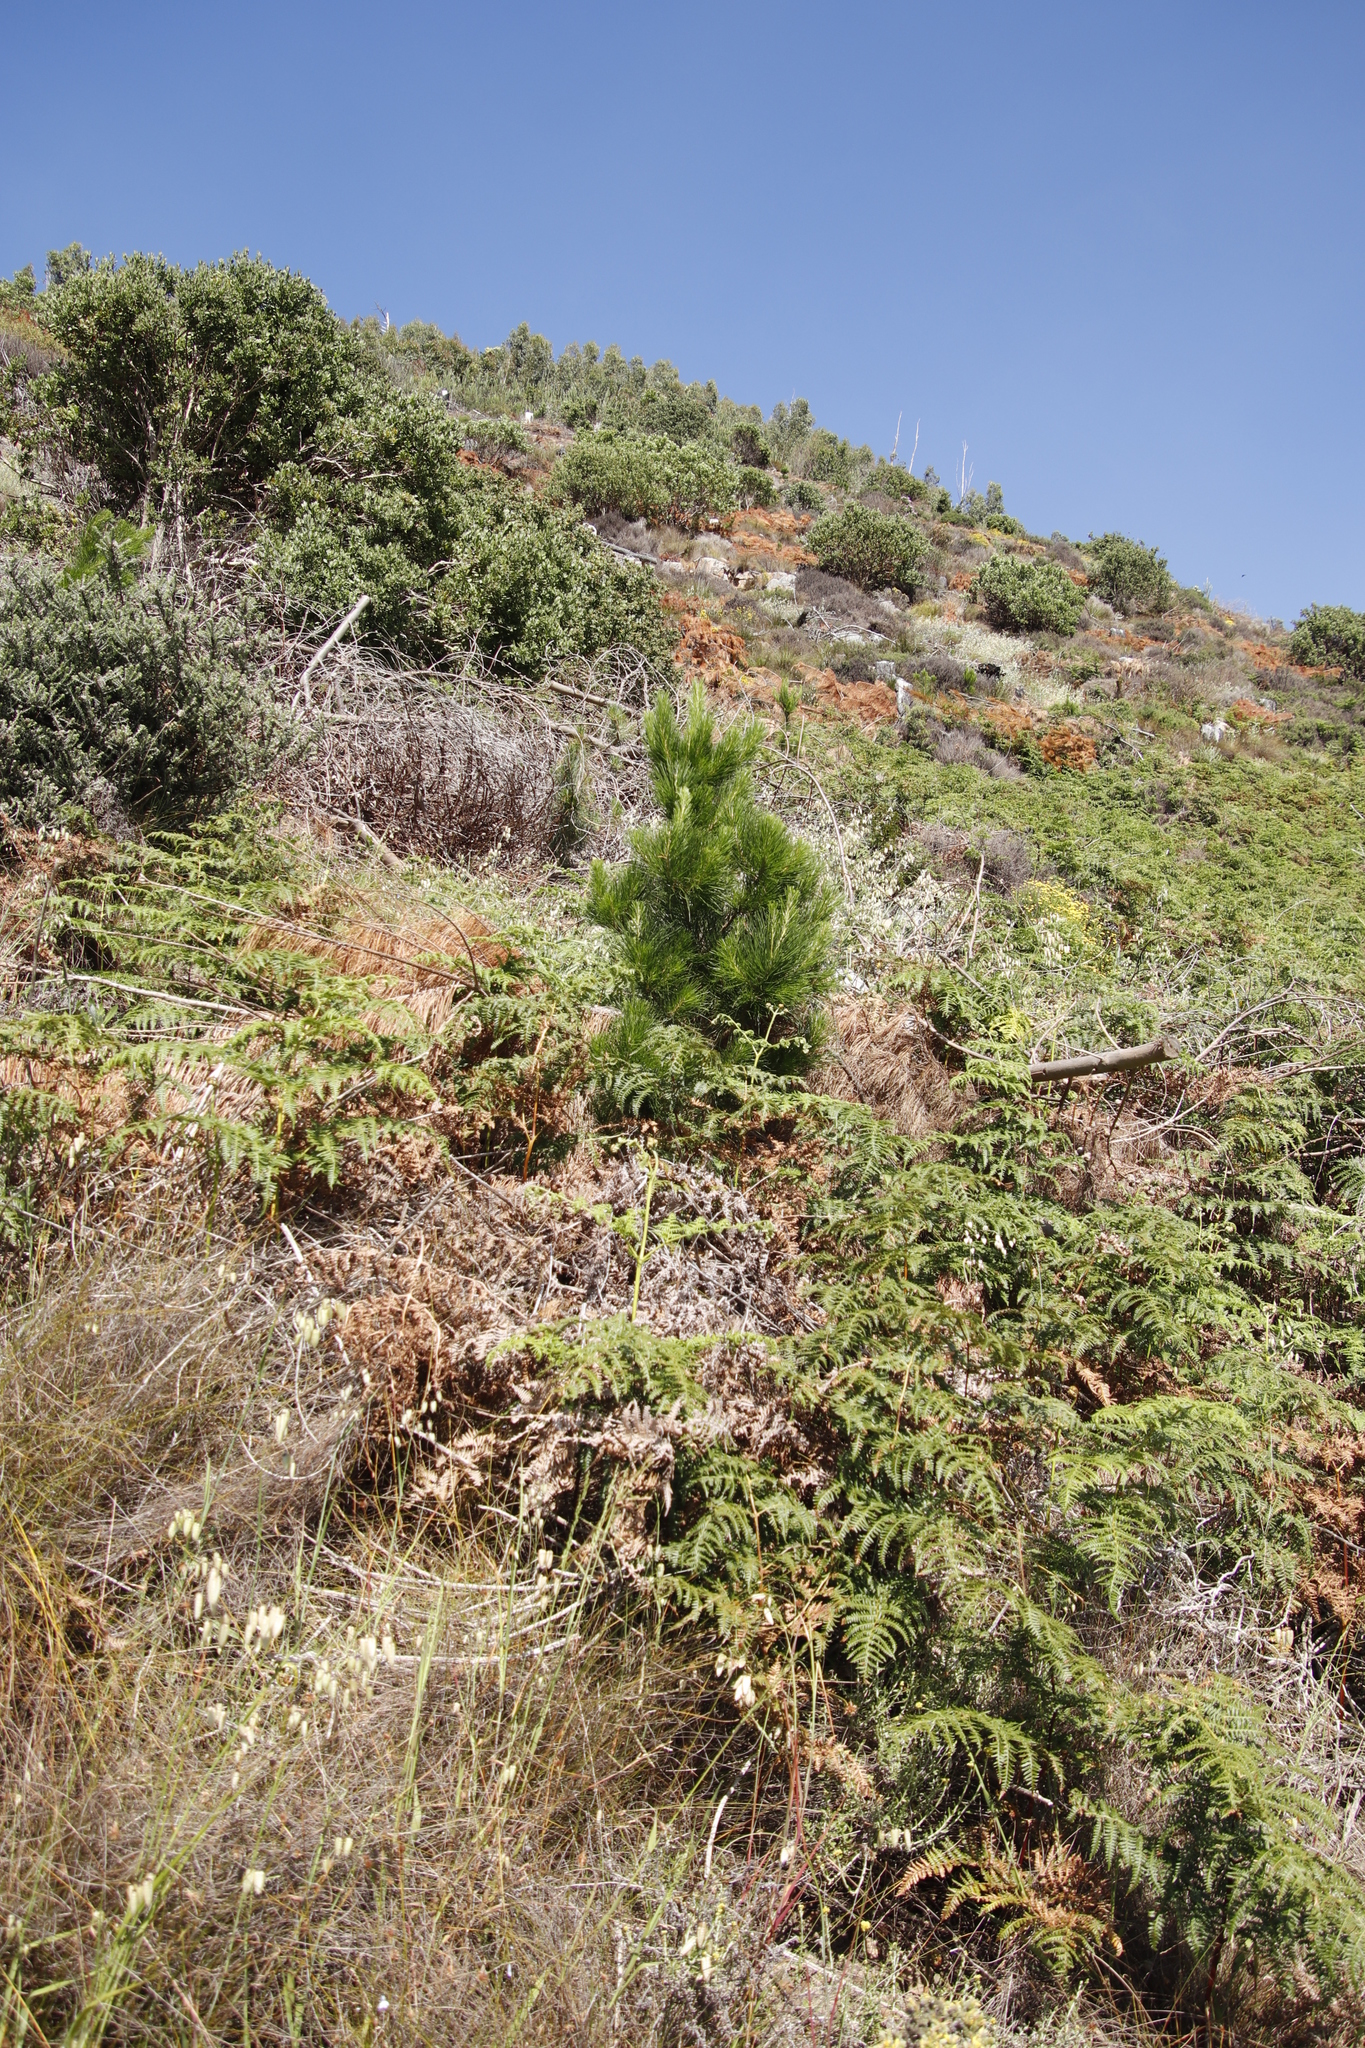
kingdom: Plantae
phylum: Tracheophyta
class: Polypodiopsida
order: Polypodiales
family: Dennstaedtiaceae
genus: Pteridium
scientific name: Pteridium aquilinum
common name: Bracken
